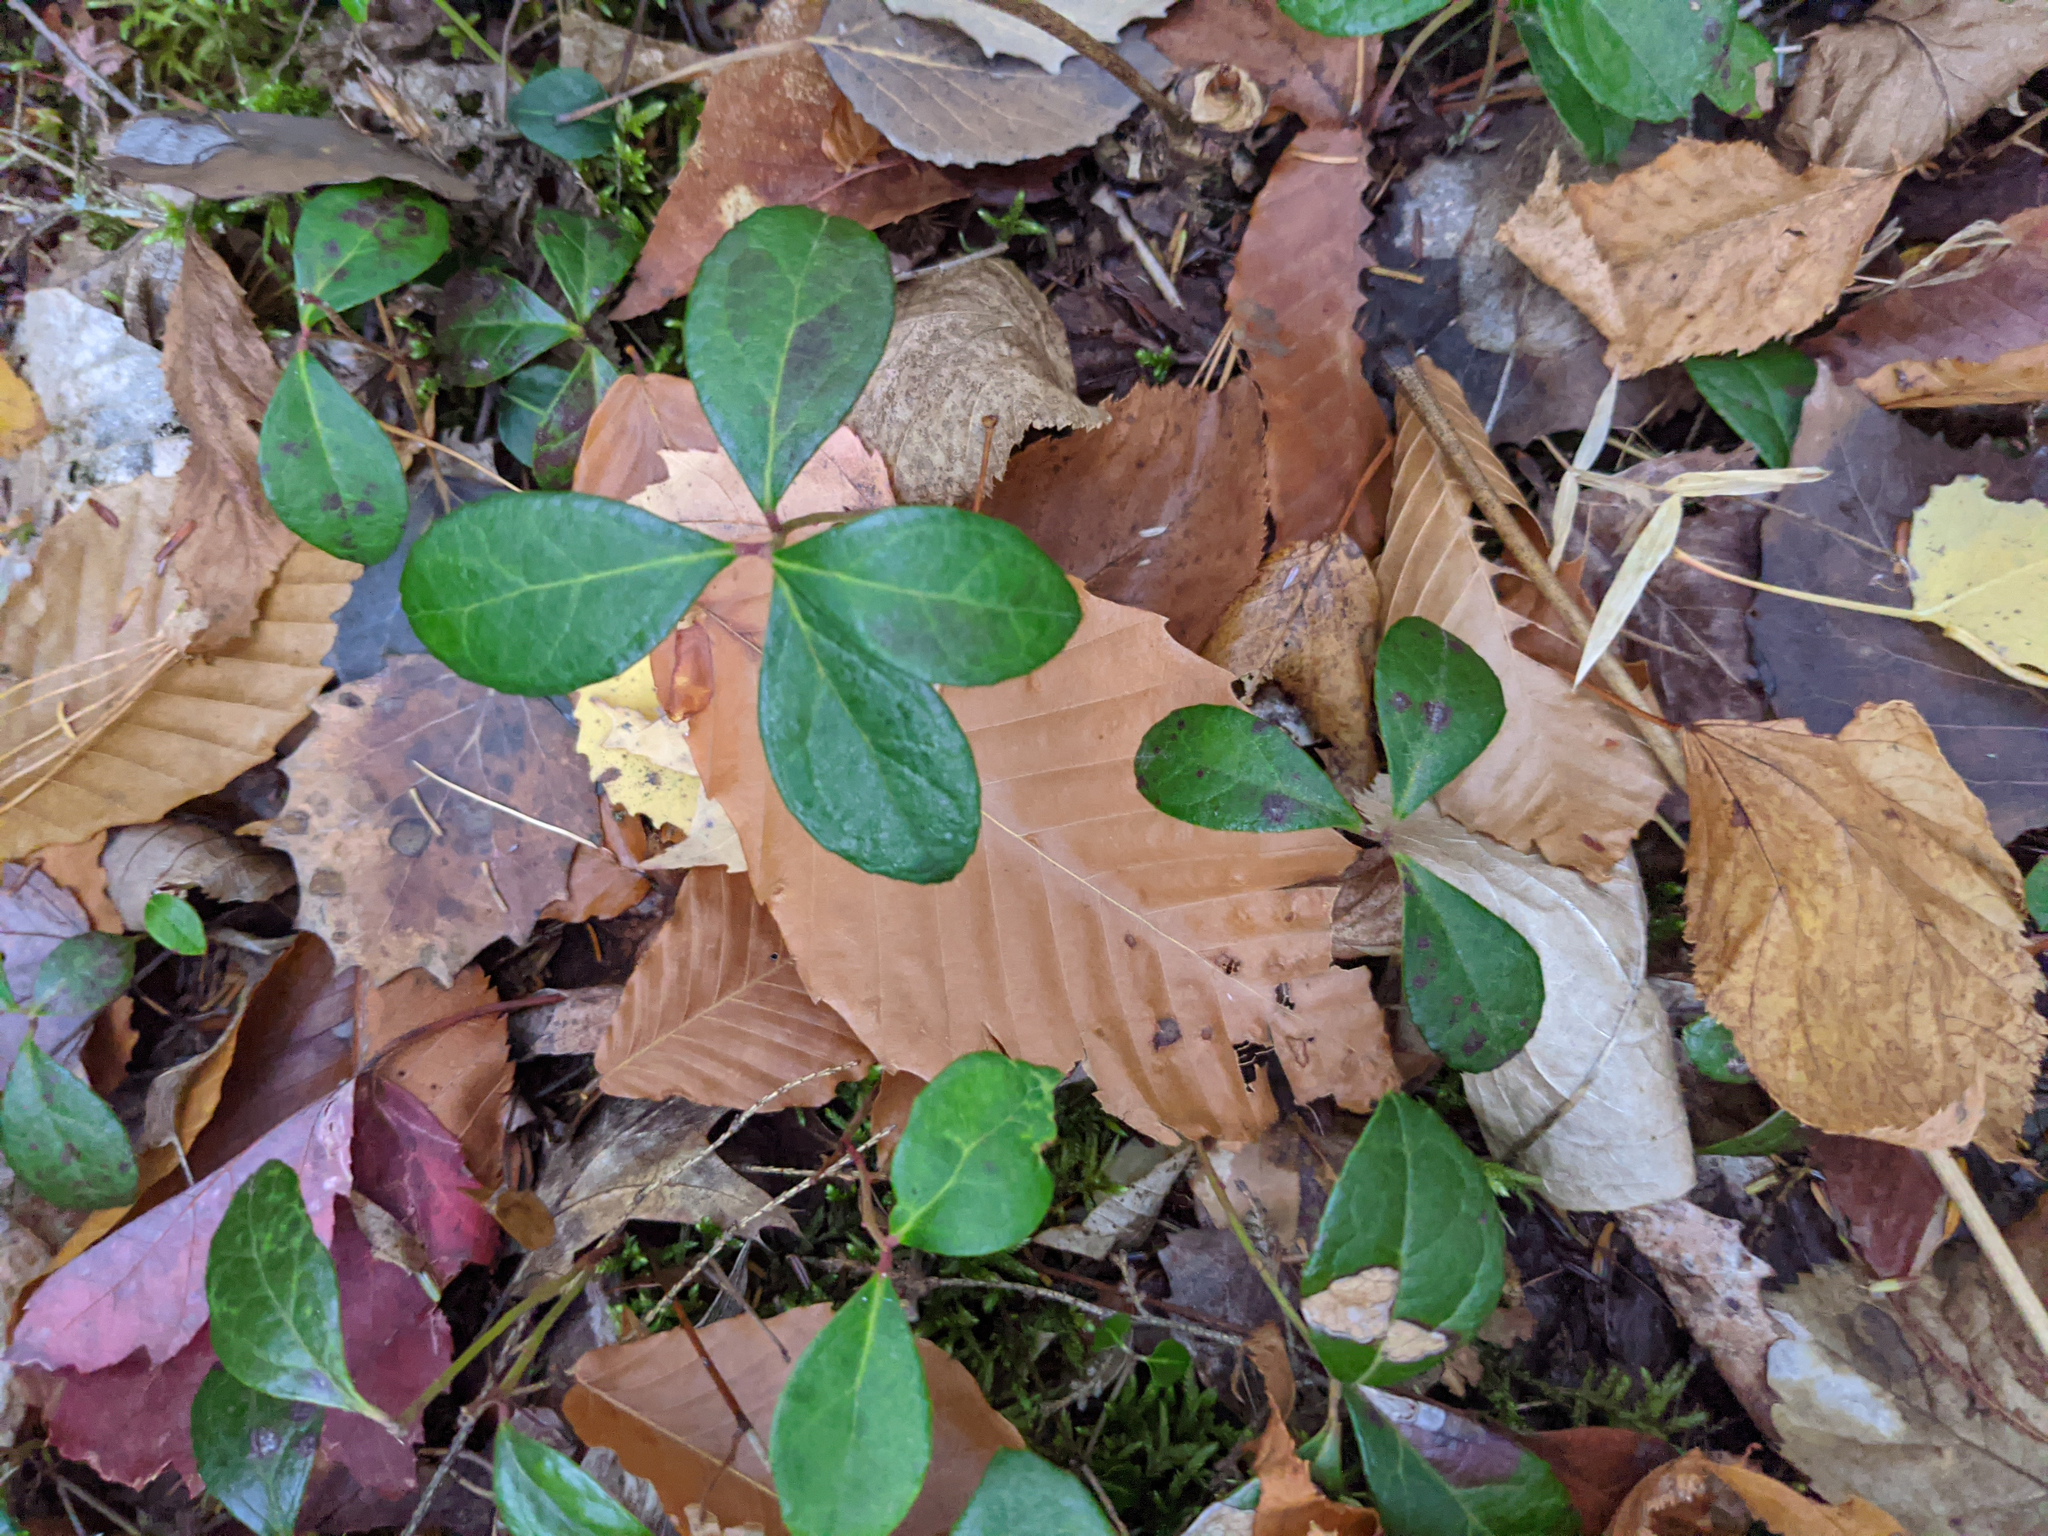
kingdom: Plantae
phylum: Tracheophyta
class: Magnoliopsida
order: Ericales
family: Ericaceae
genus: Gaultheria
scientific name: Gaultheria procumbens
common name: Checkerberry
